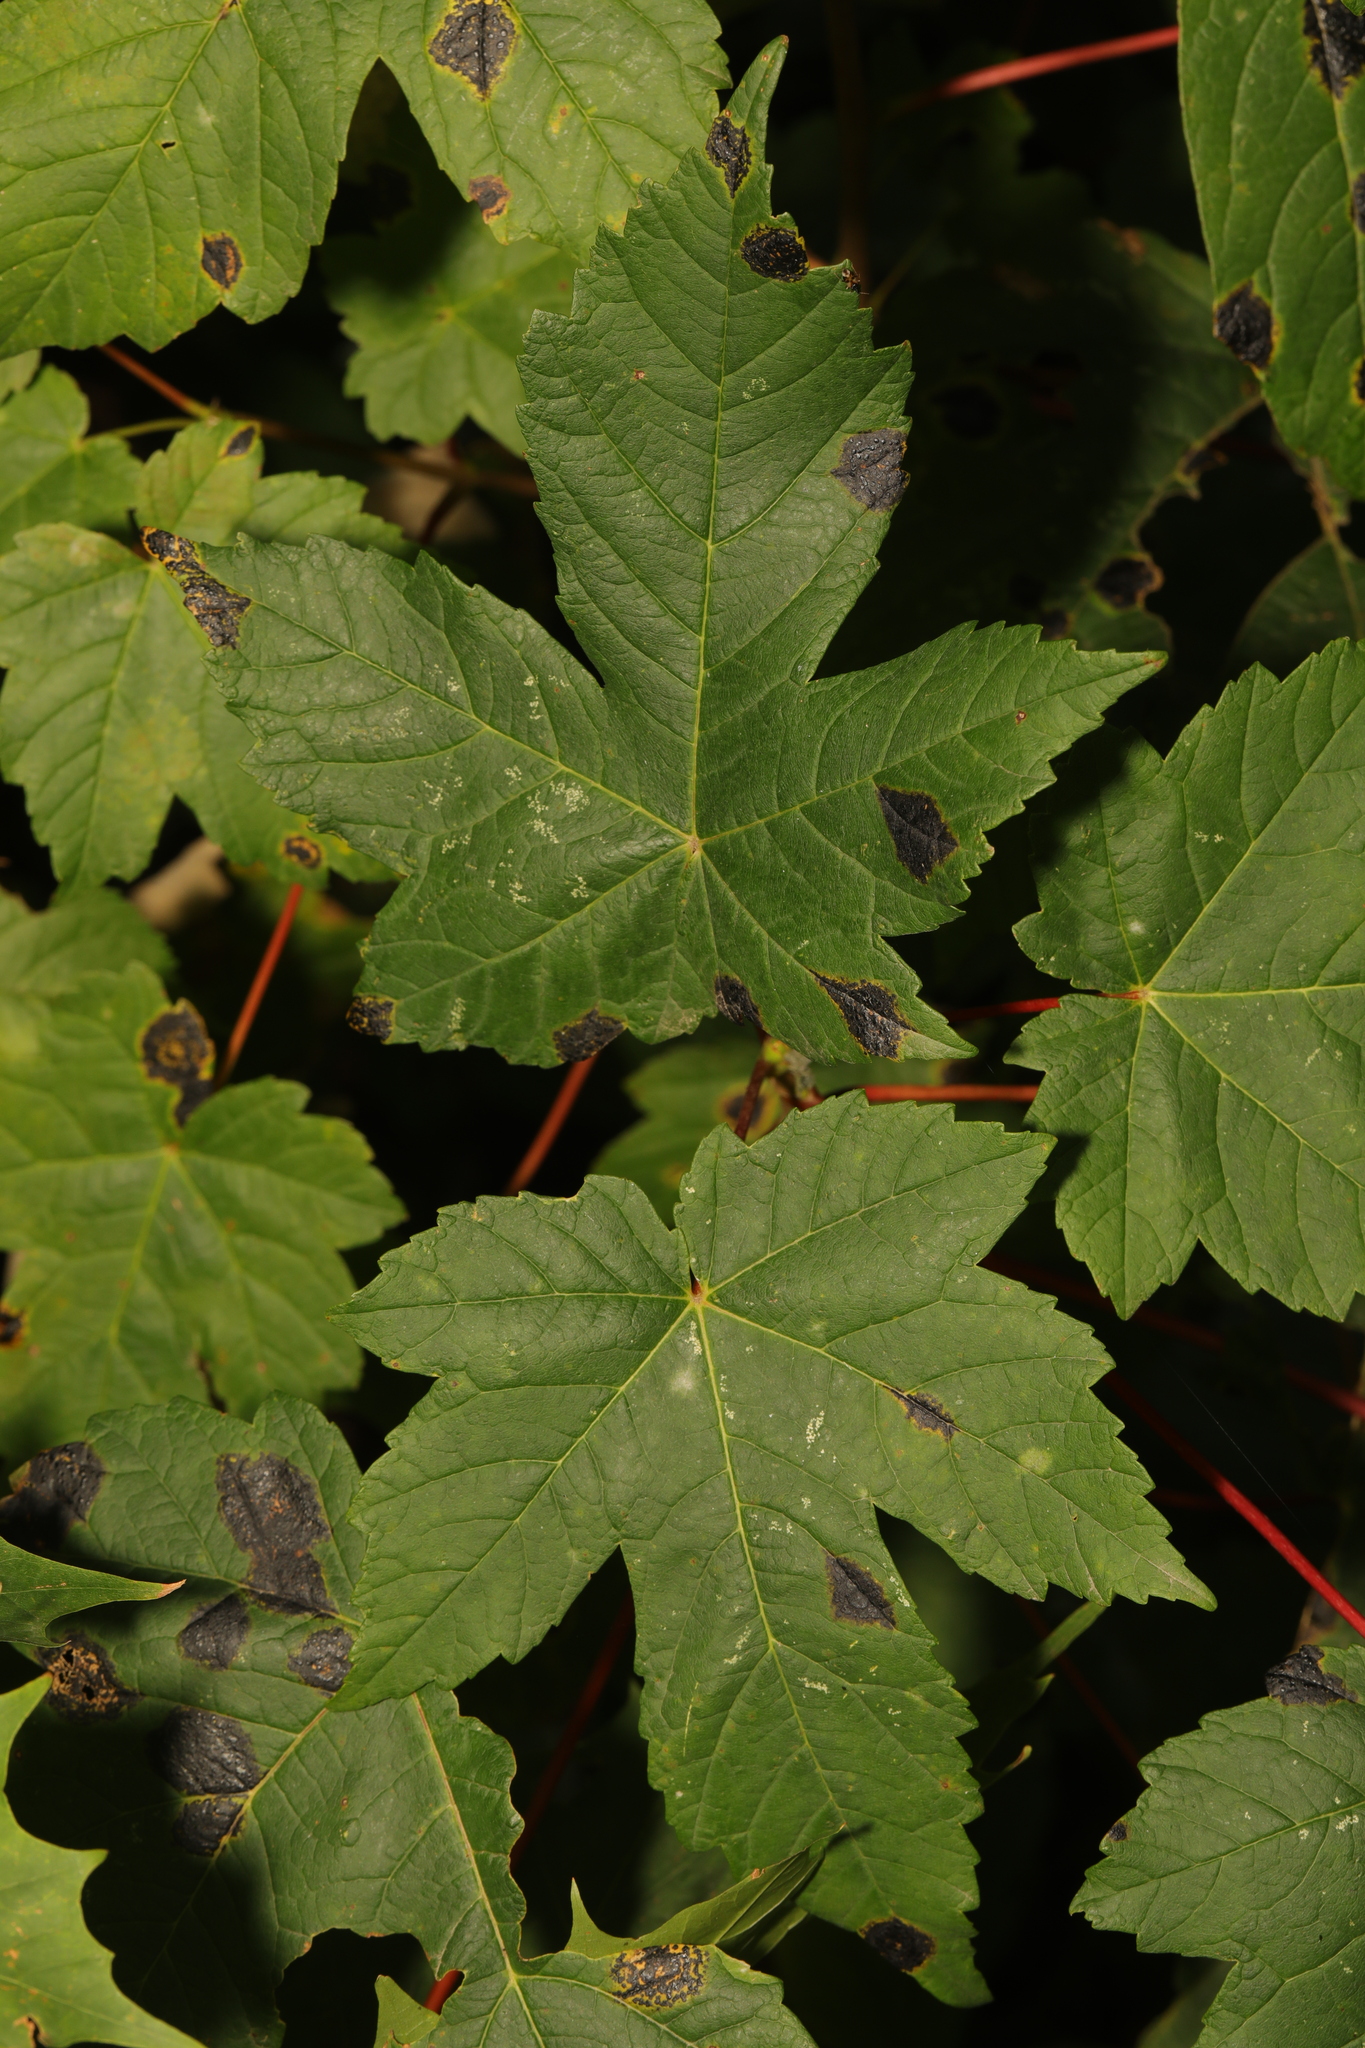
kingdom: Plantae
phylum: Tracheophyta
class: Magnoliopsida
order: Sapindales
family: Sapindaceae
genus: Acer
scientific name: Acer pseudoplatanus
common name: Sycamore
